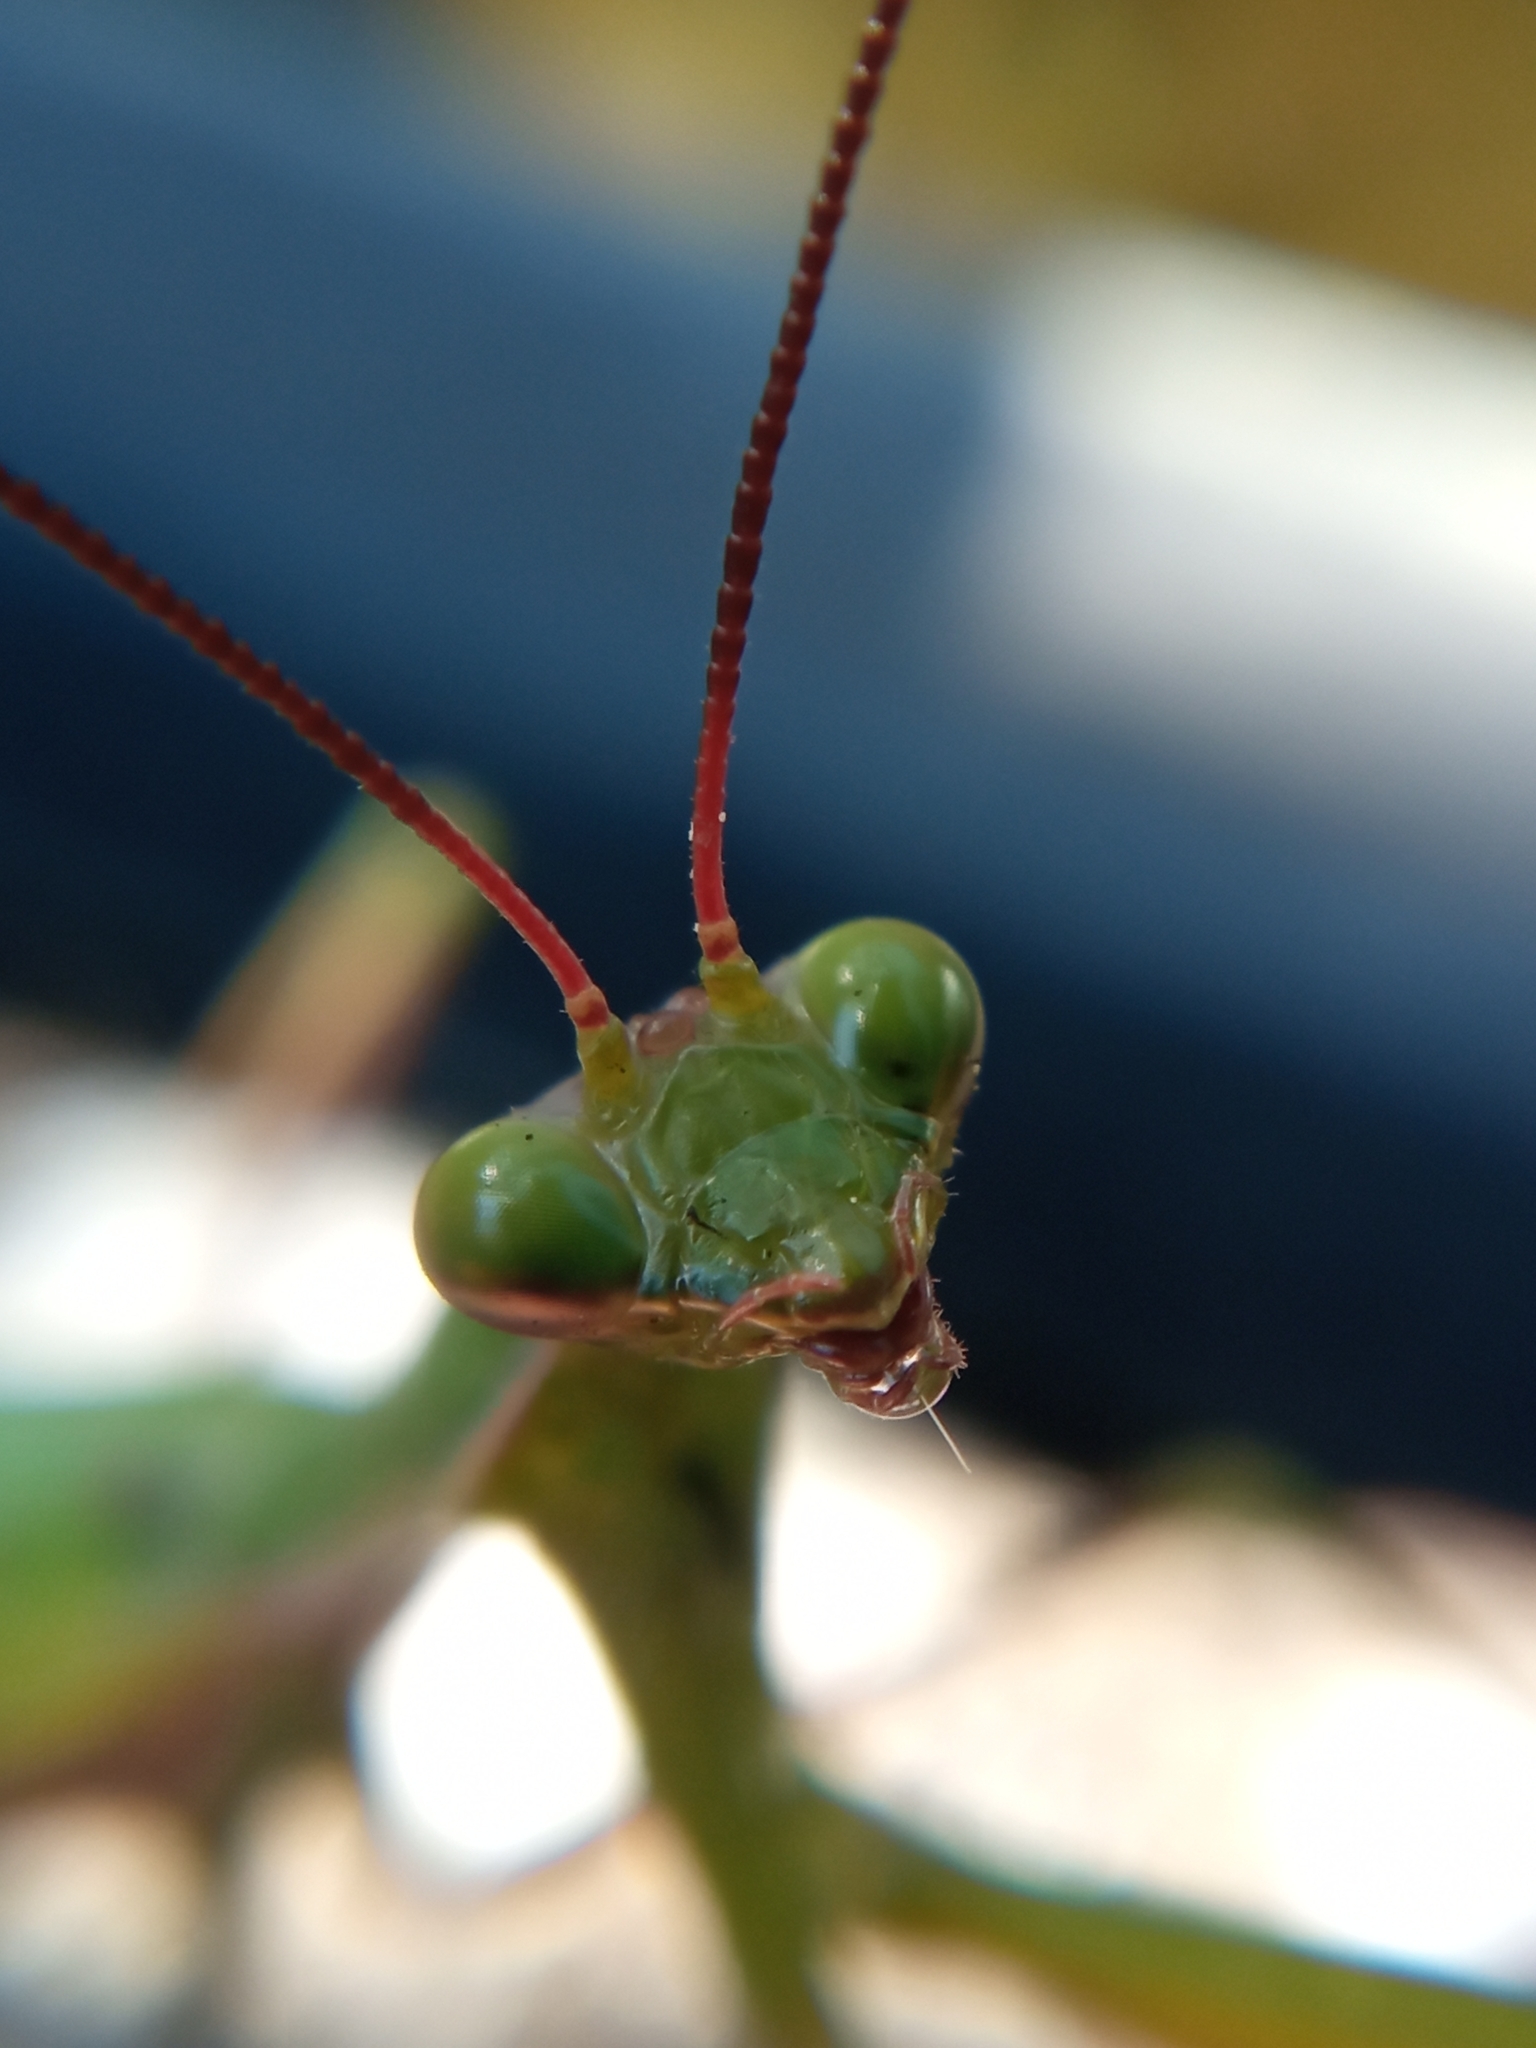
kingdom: Animalia
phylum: Arthropoda
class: Insecta
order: Mantodea
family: Mantidae
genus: Mantis
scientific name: Mantis religiosa
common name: Praying mantis
